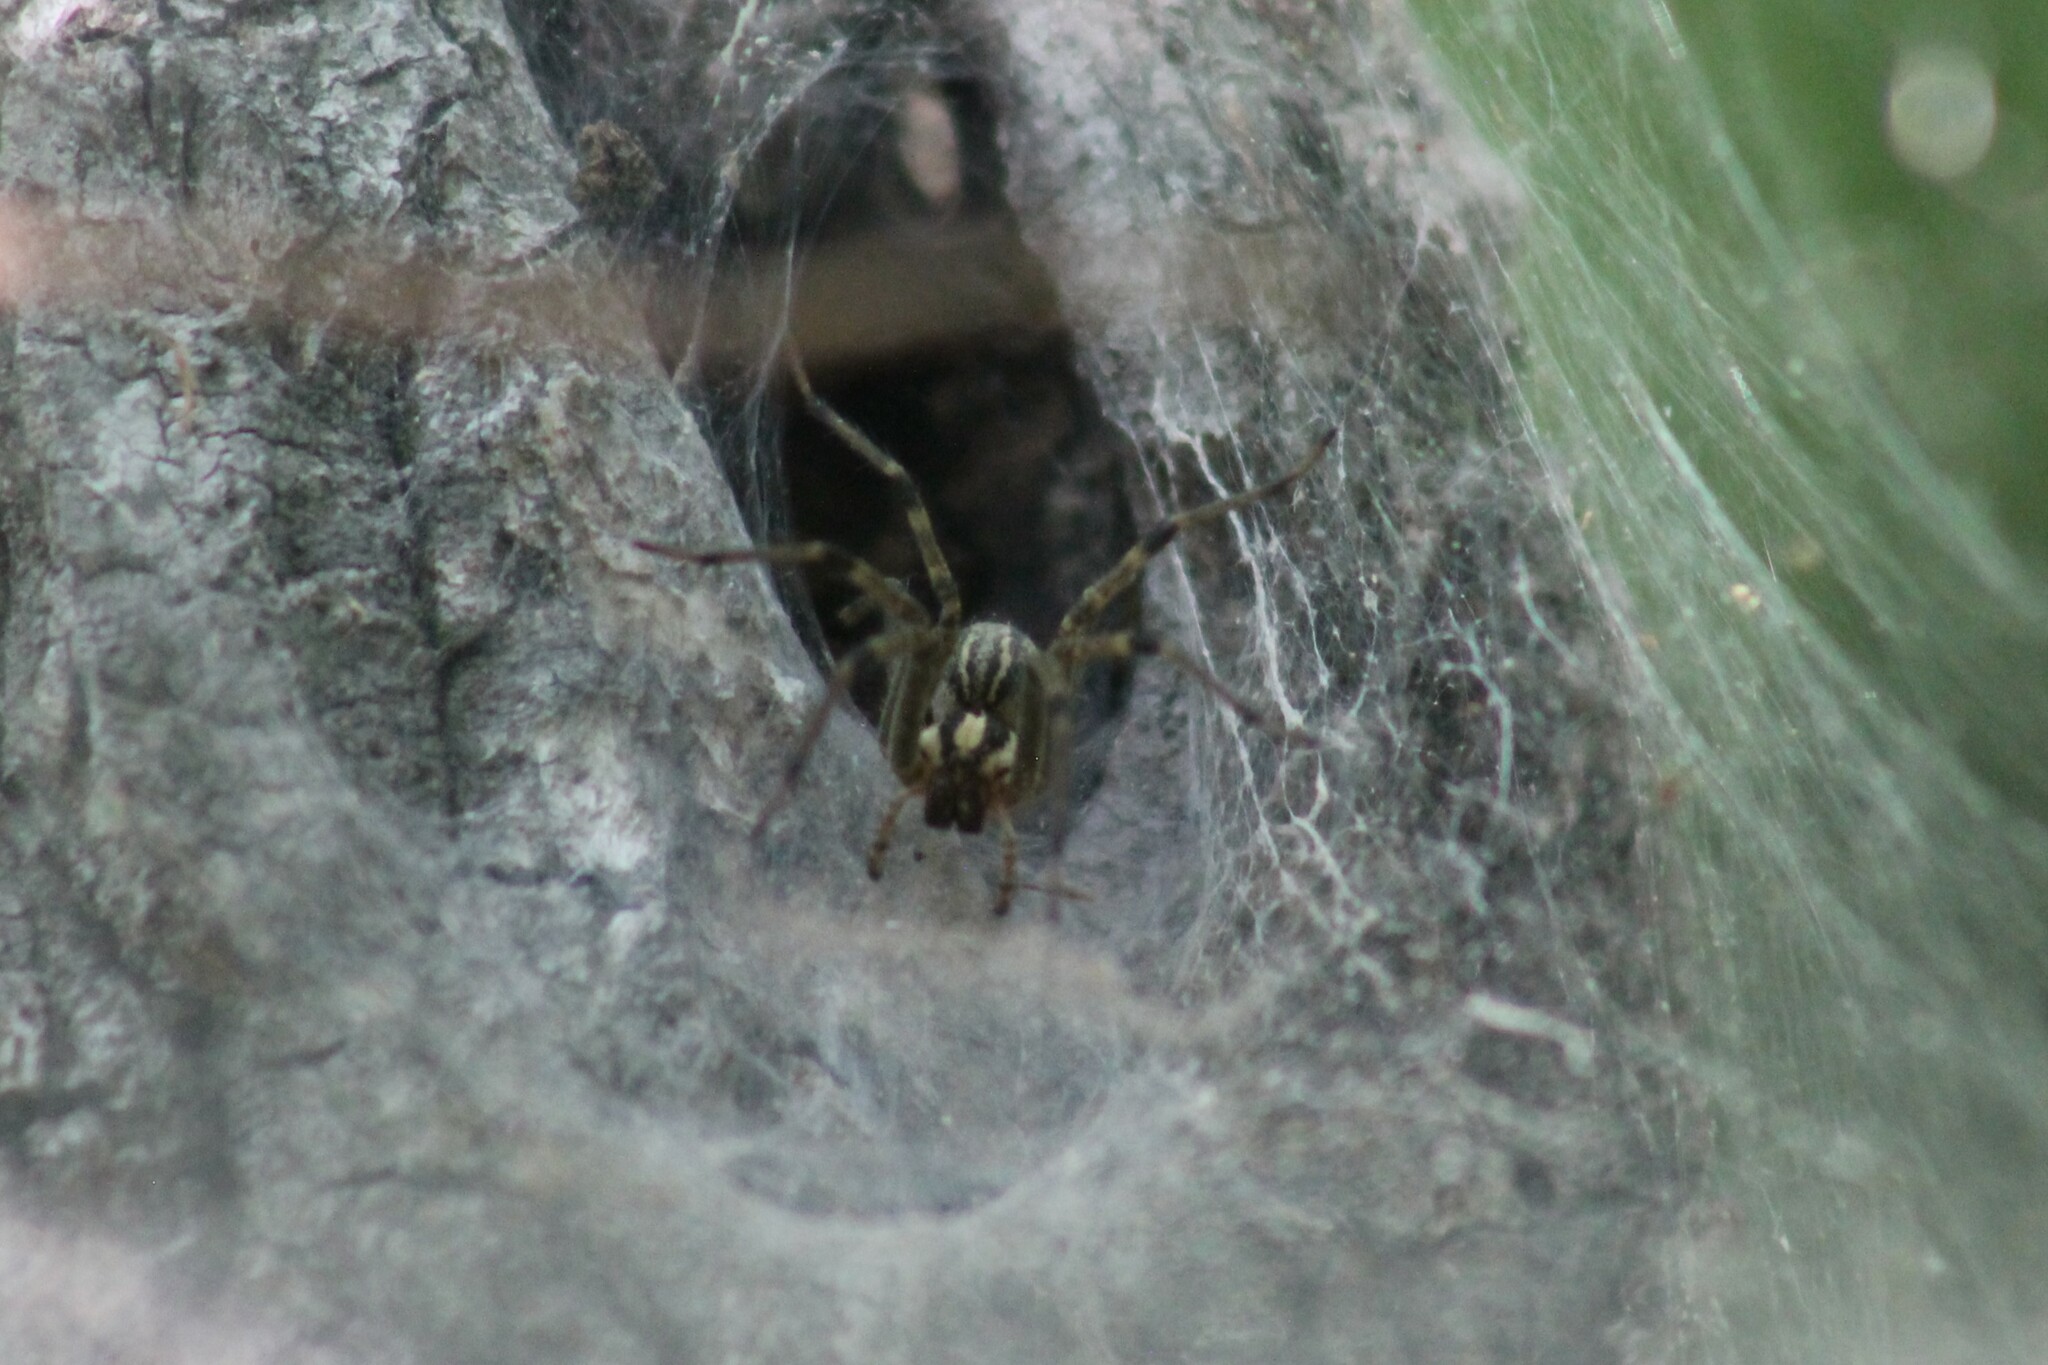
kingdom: Animalia
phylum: Arthropoda
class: Arachnida
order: Araneae
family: Agelenidae
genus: Agelenopsis
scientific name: Agelenopsis
